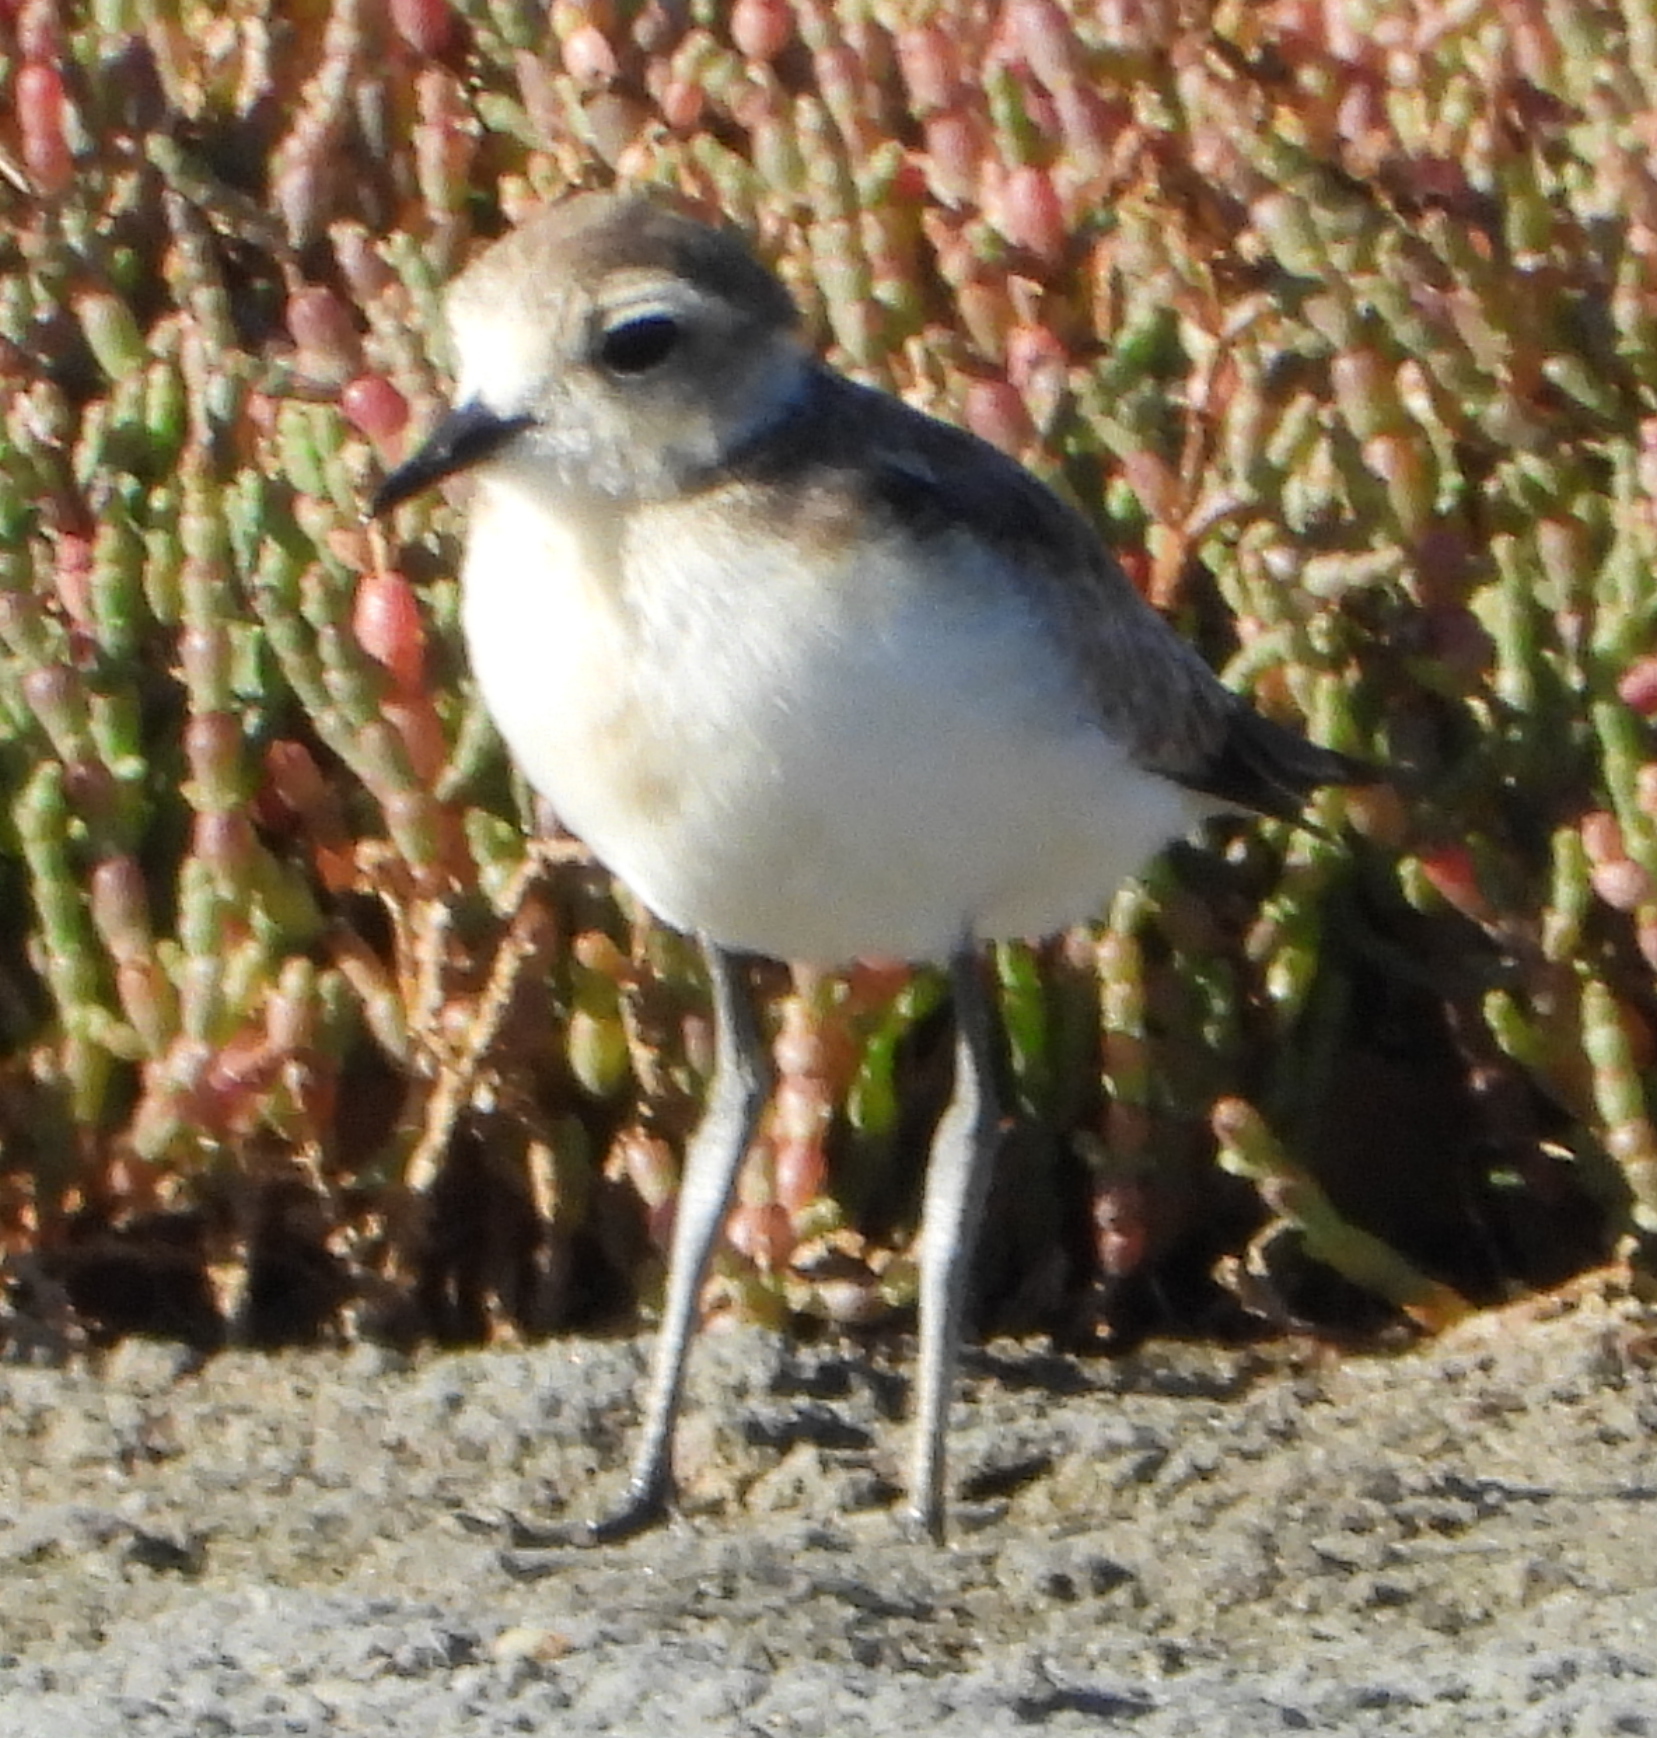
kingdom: Animalia
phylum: Chordata
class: Aves
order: Charadriiformes
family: Charadriidae
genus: Anarhynchus
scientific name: Anarhynchus
